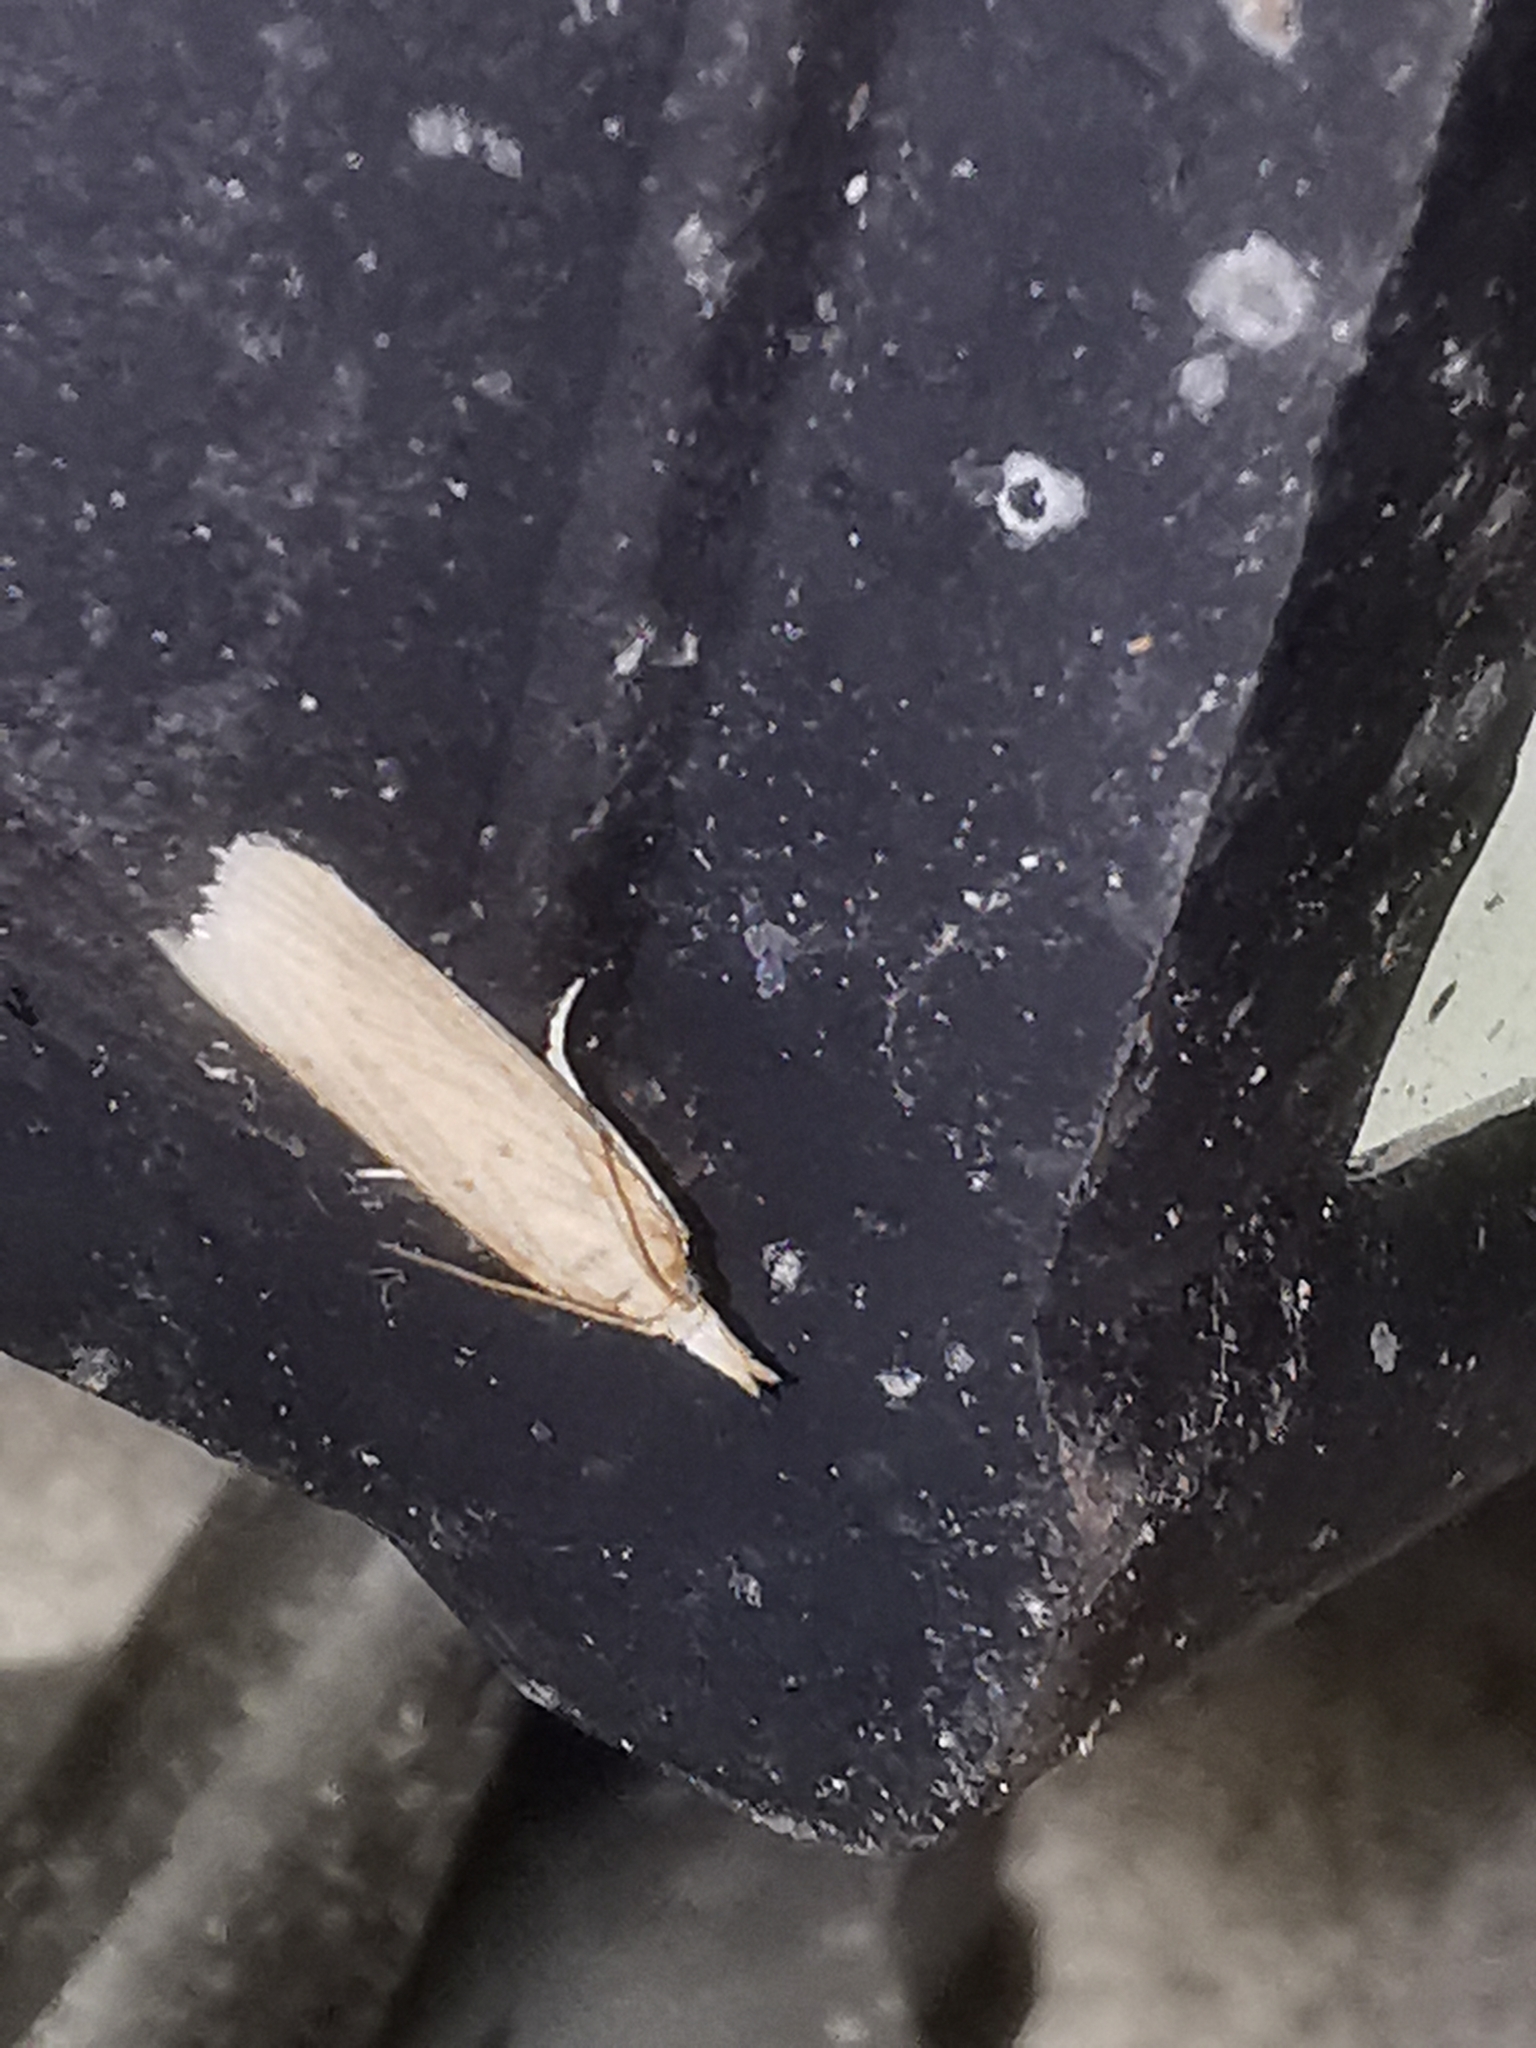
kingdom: Animalia
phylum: Arthropoda
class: Insecta
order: Lepidoptera
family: Pyralidae
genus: Ematheudes
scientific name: Ematheudes punctellus
